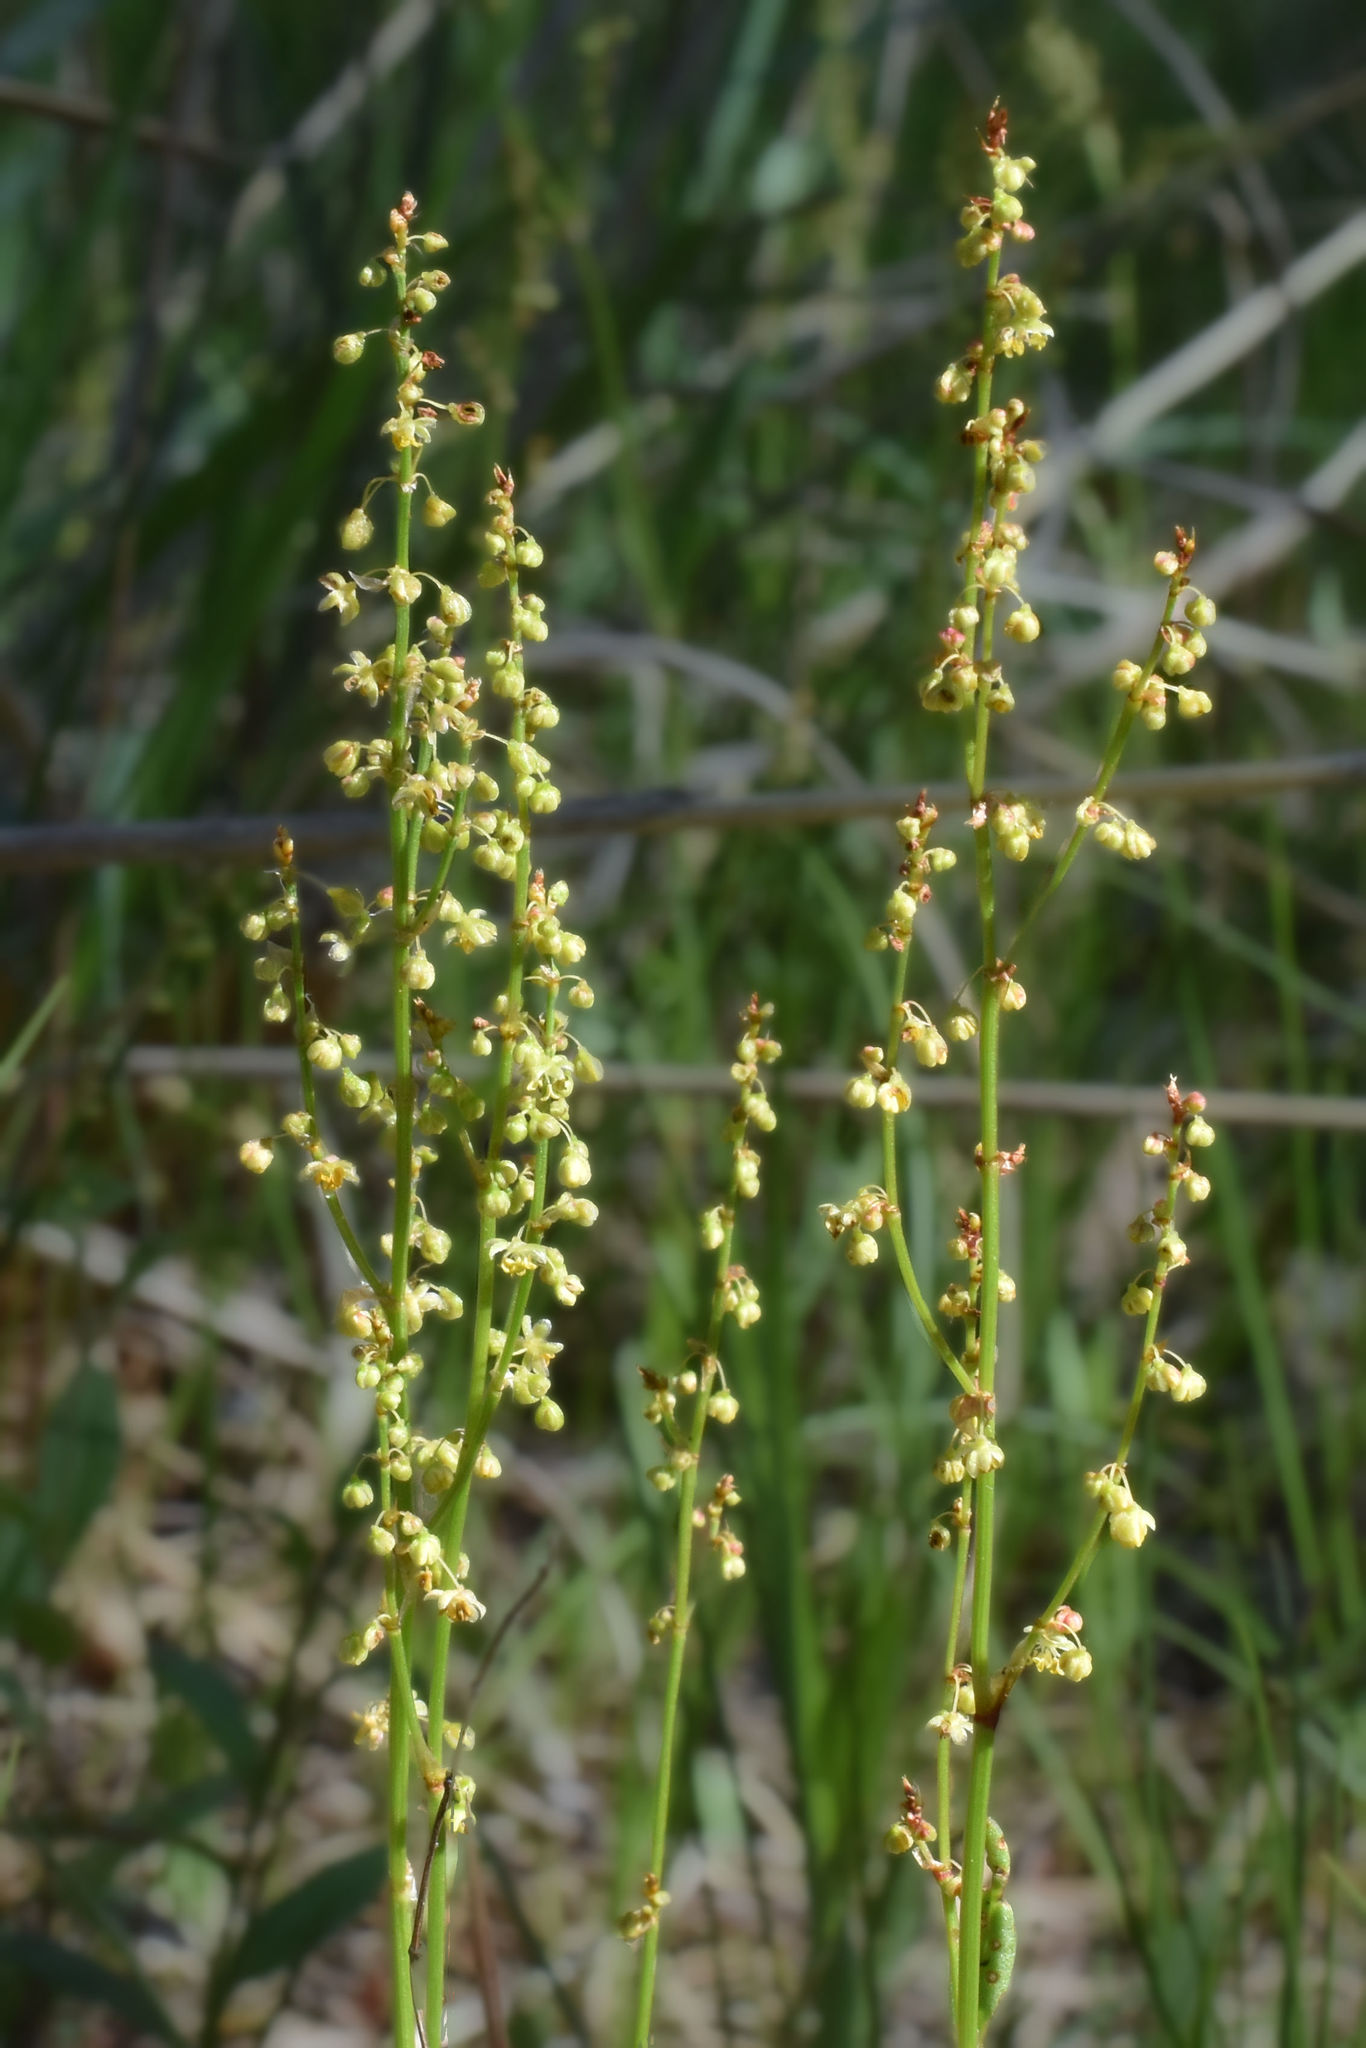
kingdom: Plantae
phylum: Tracheophyta
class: Magnoliopsida
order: Caryophyllales
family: Polygonaceae
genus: Rumex
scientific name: Rumex acetosella
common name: Common sheep sorrel
